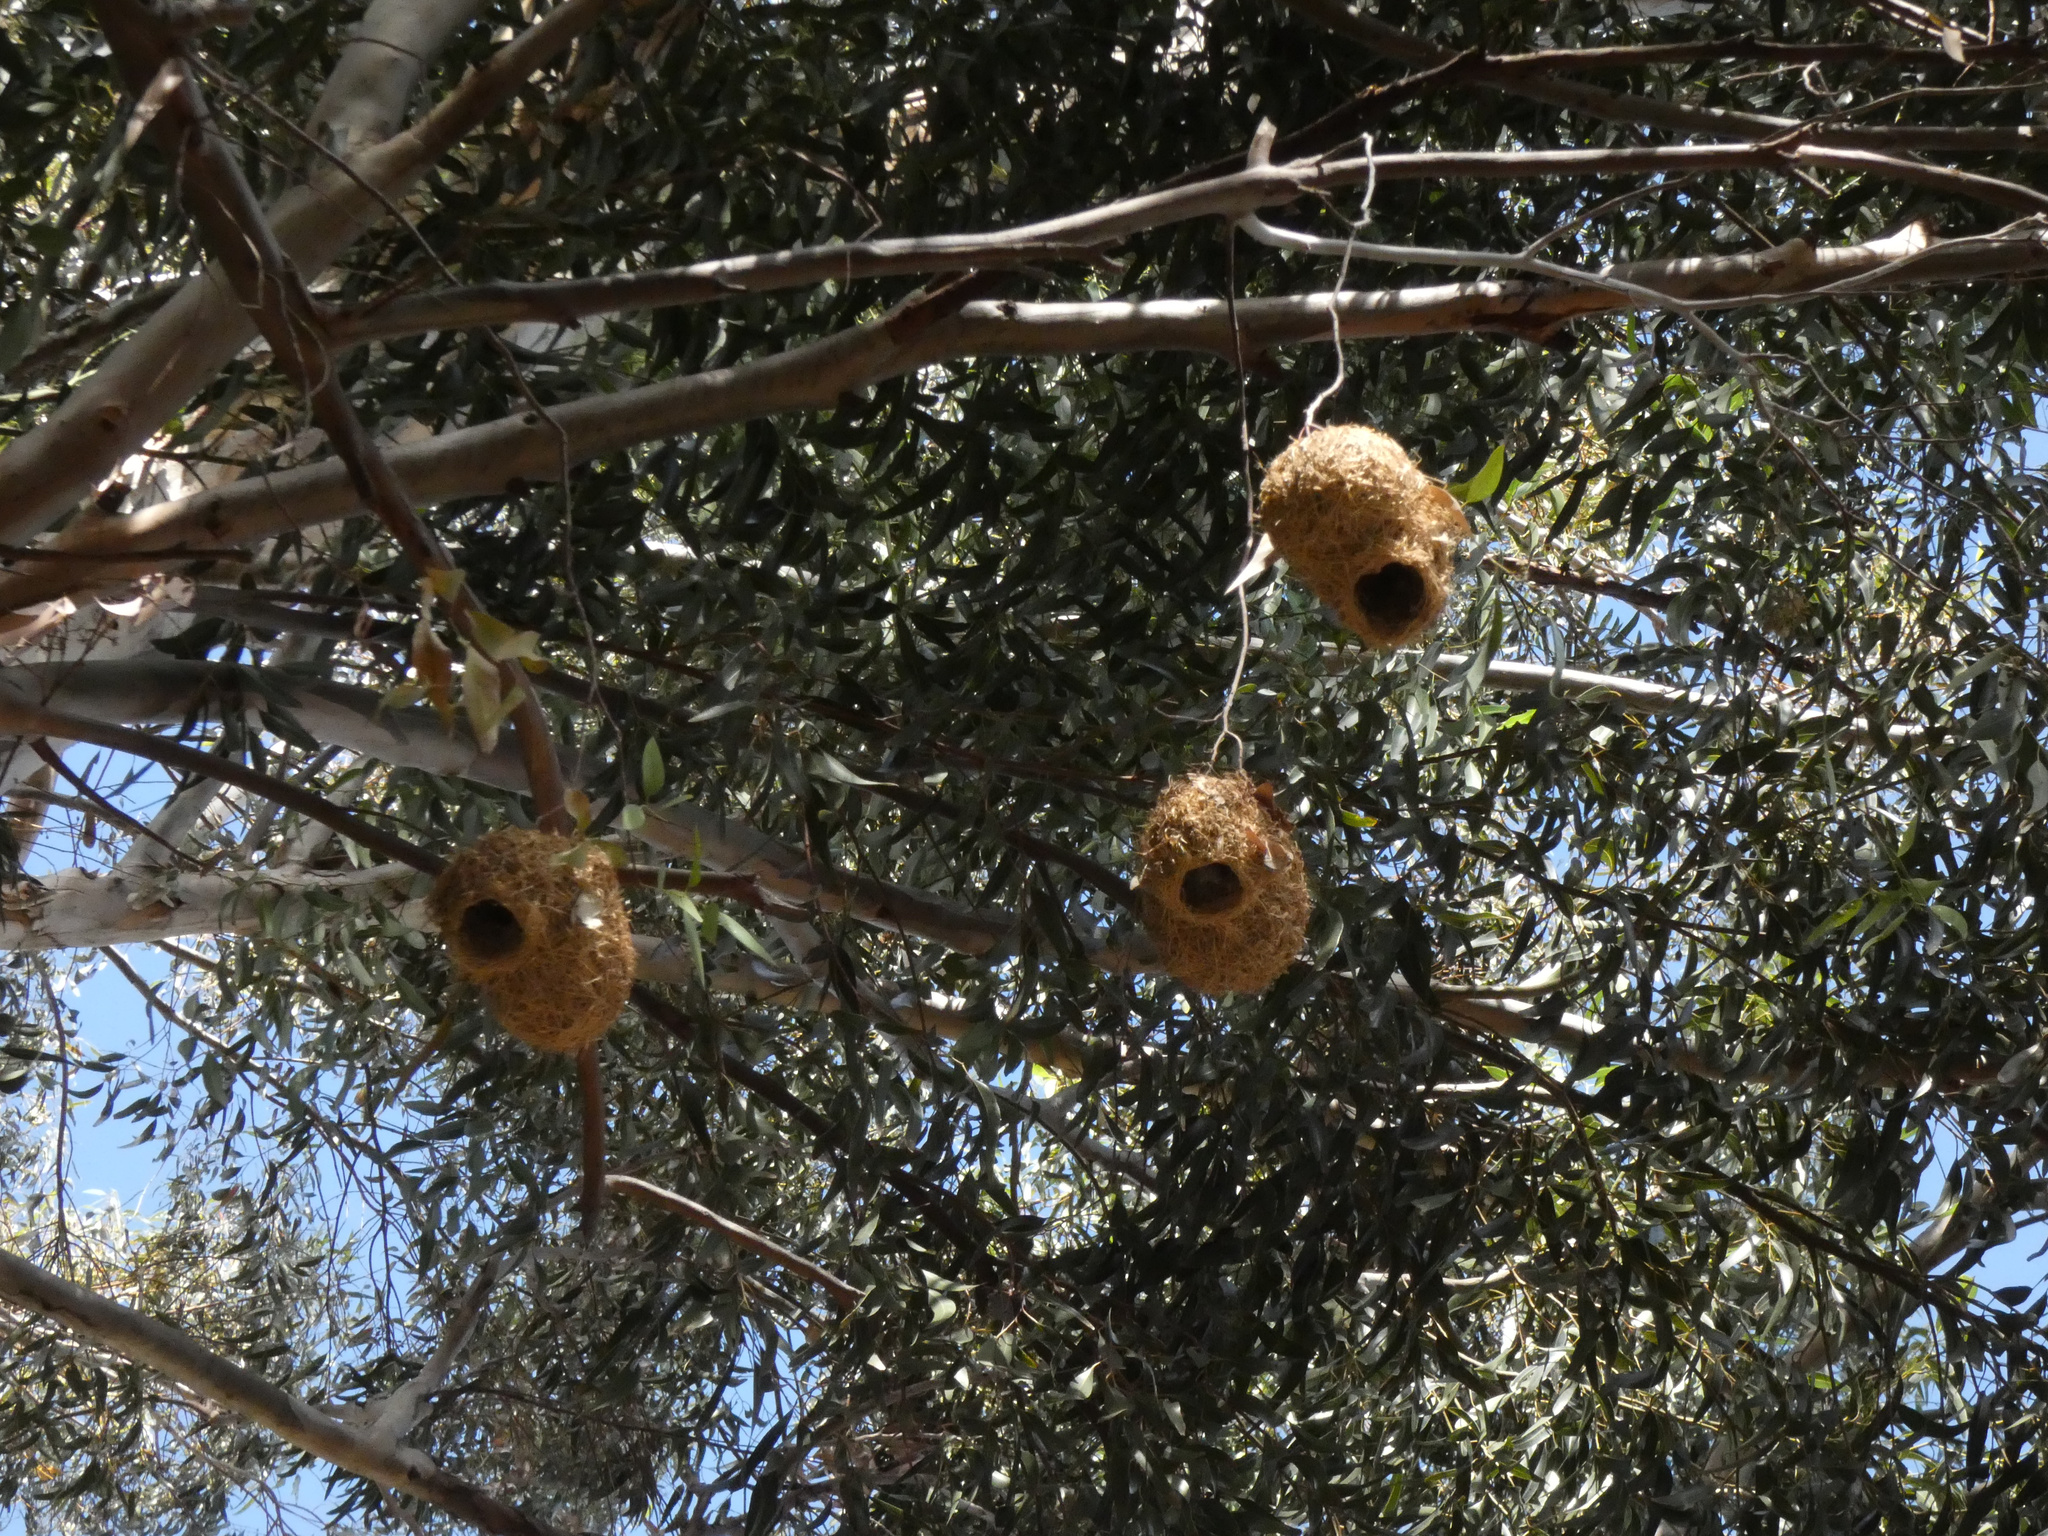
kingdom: Animalia
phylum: Chordata
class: Aves
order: Passeriformes
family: Passeridae
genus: Passer
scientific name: Passer melanurus
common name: Cape sparrow
